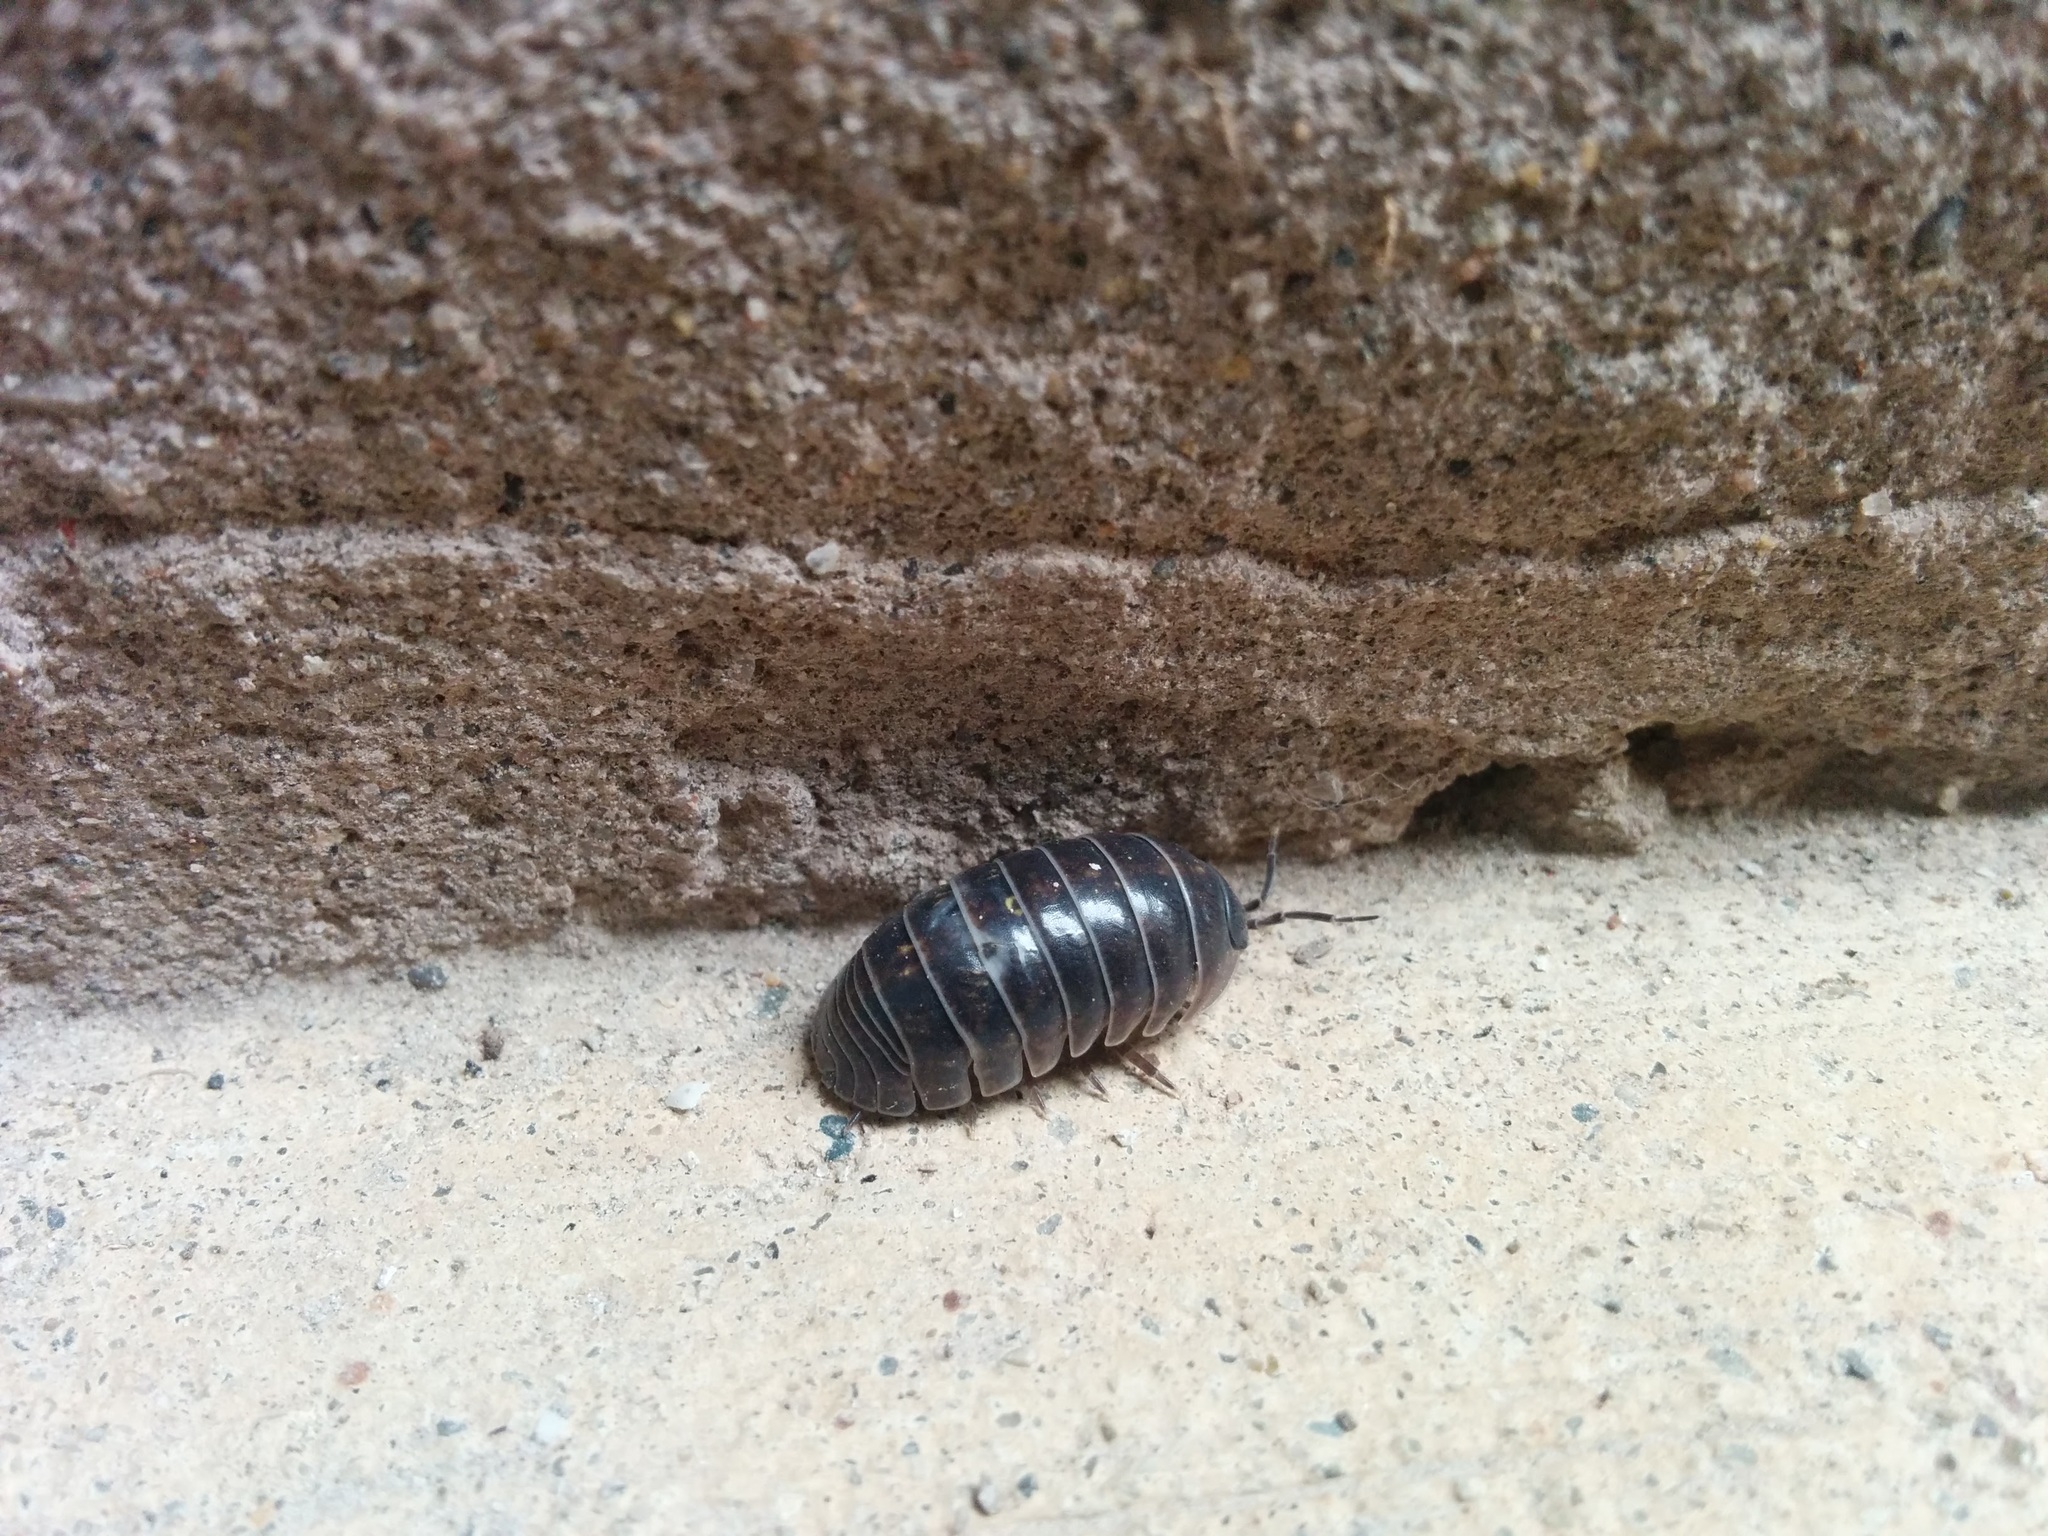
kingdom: Animalia
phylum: Arthropoda
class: Malacostraca
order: Isopoda
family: Armadillidiidae
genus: Armadillidium
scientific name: Armadillidium vulgare
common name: Common pill woodlouse
